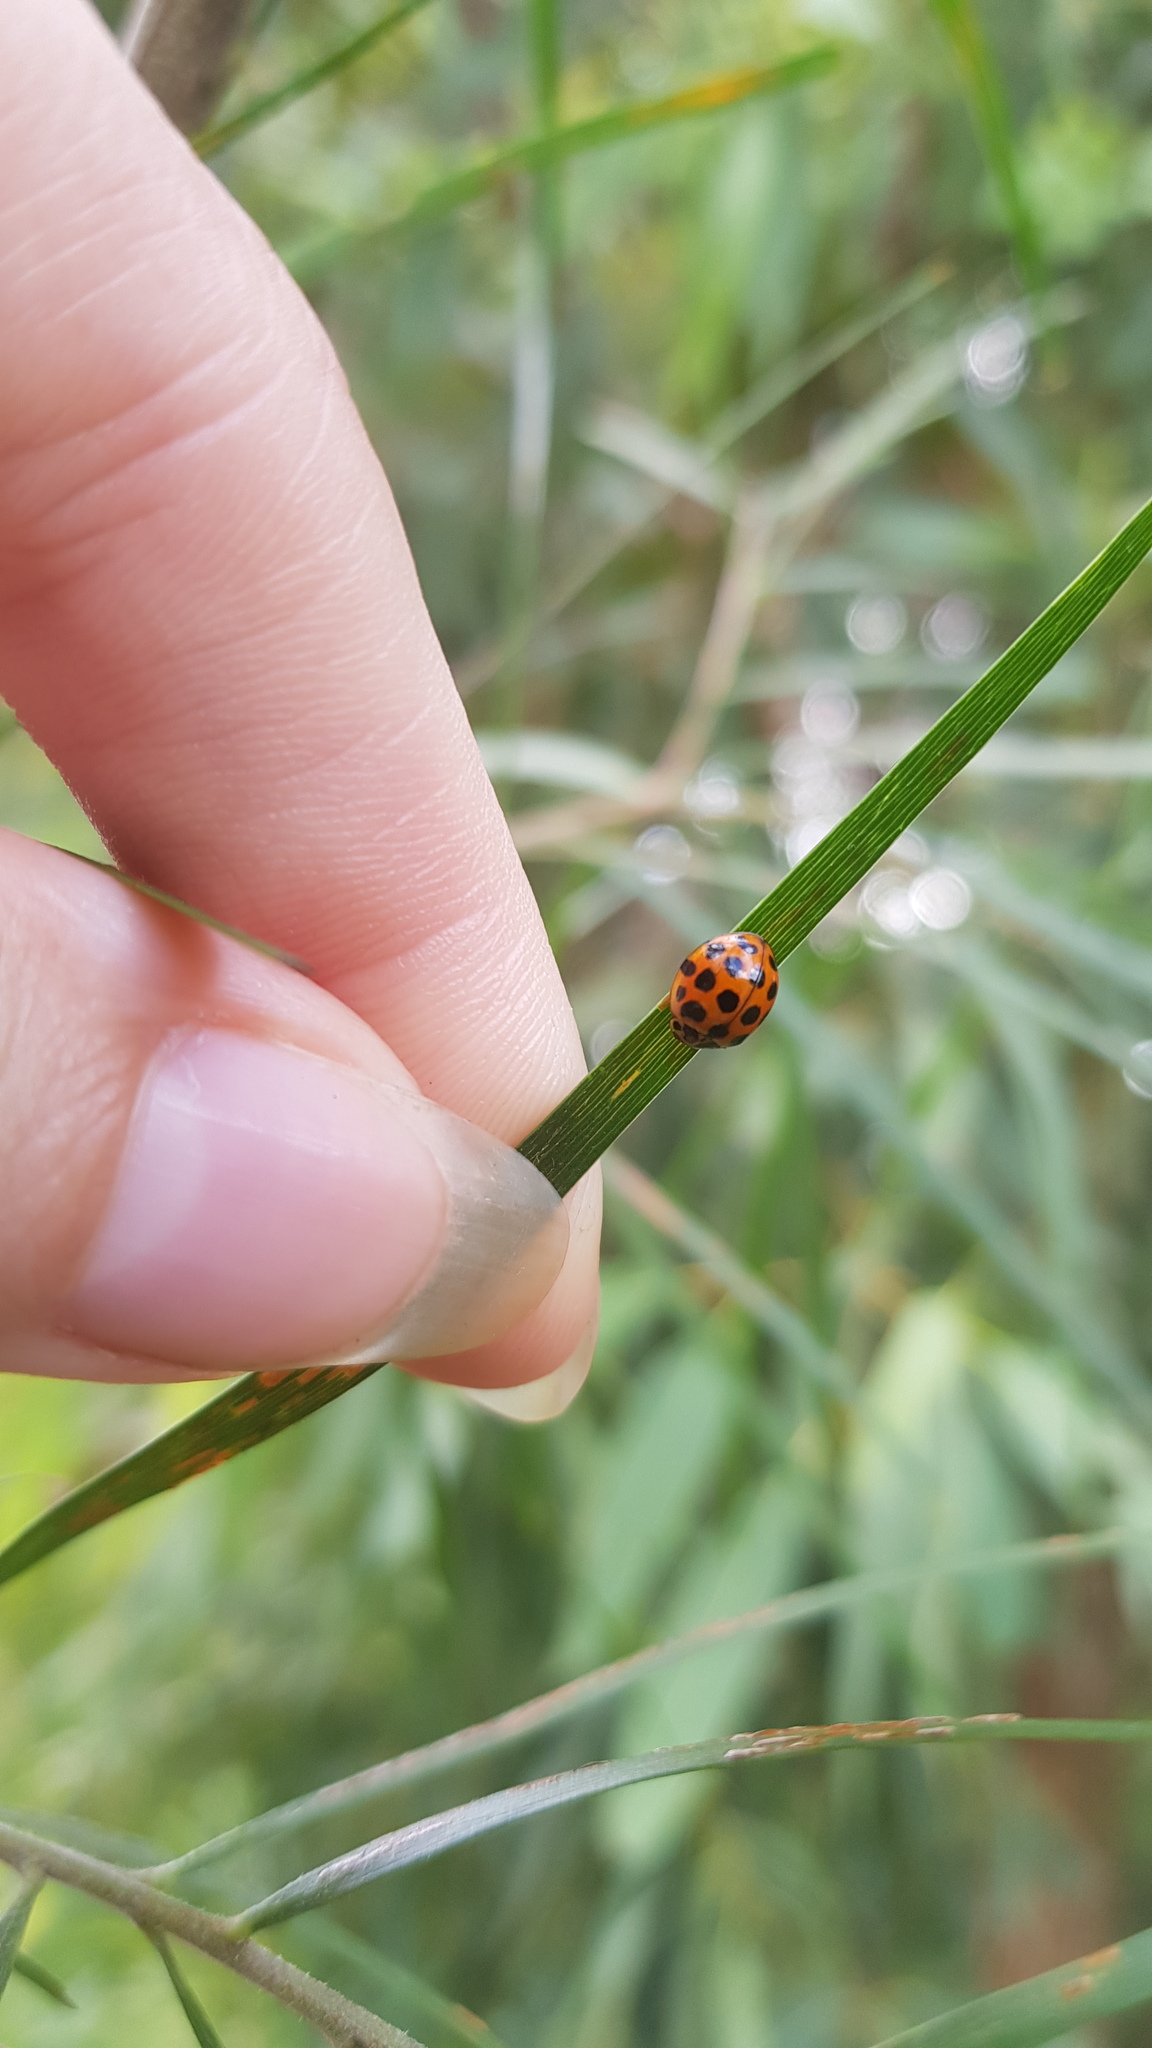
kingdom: Animalia
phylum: Arthropoda
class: Insecta
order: Coleoptera
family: Coccinellidae
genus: Harmonia
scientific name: Harmonia conformis
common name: Common spotted ladybird beetle
